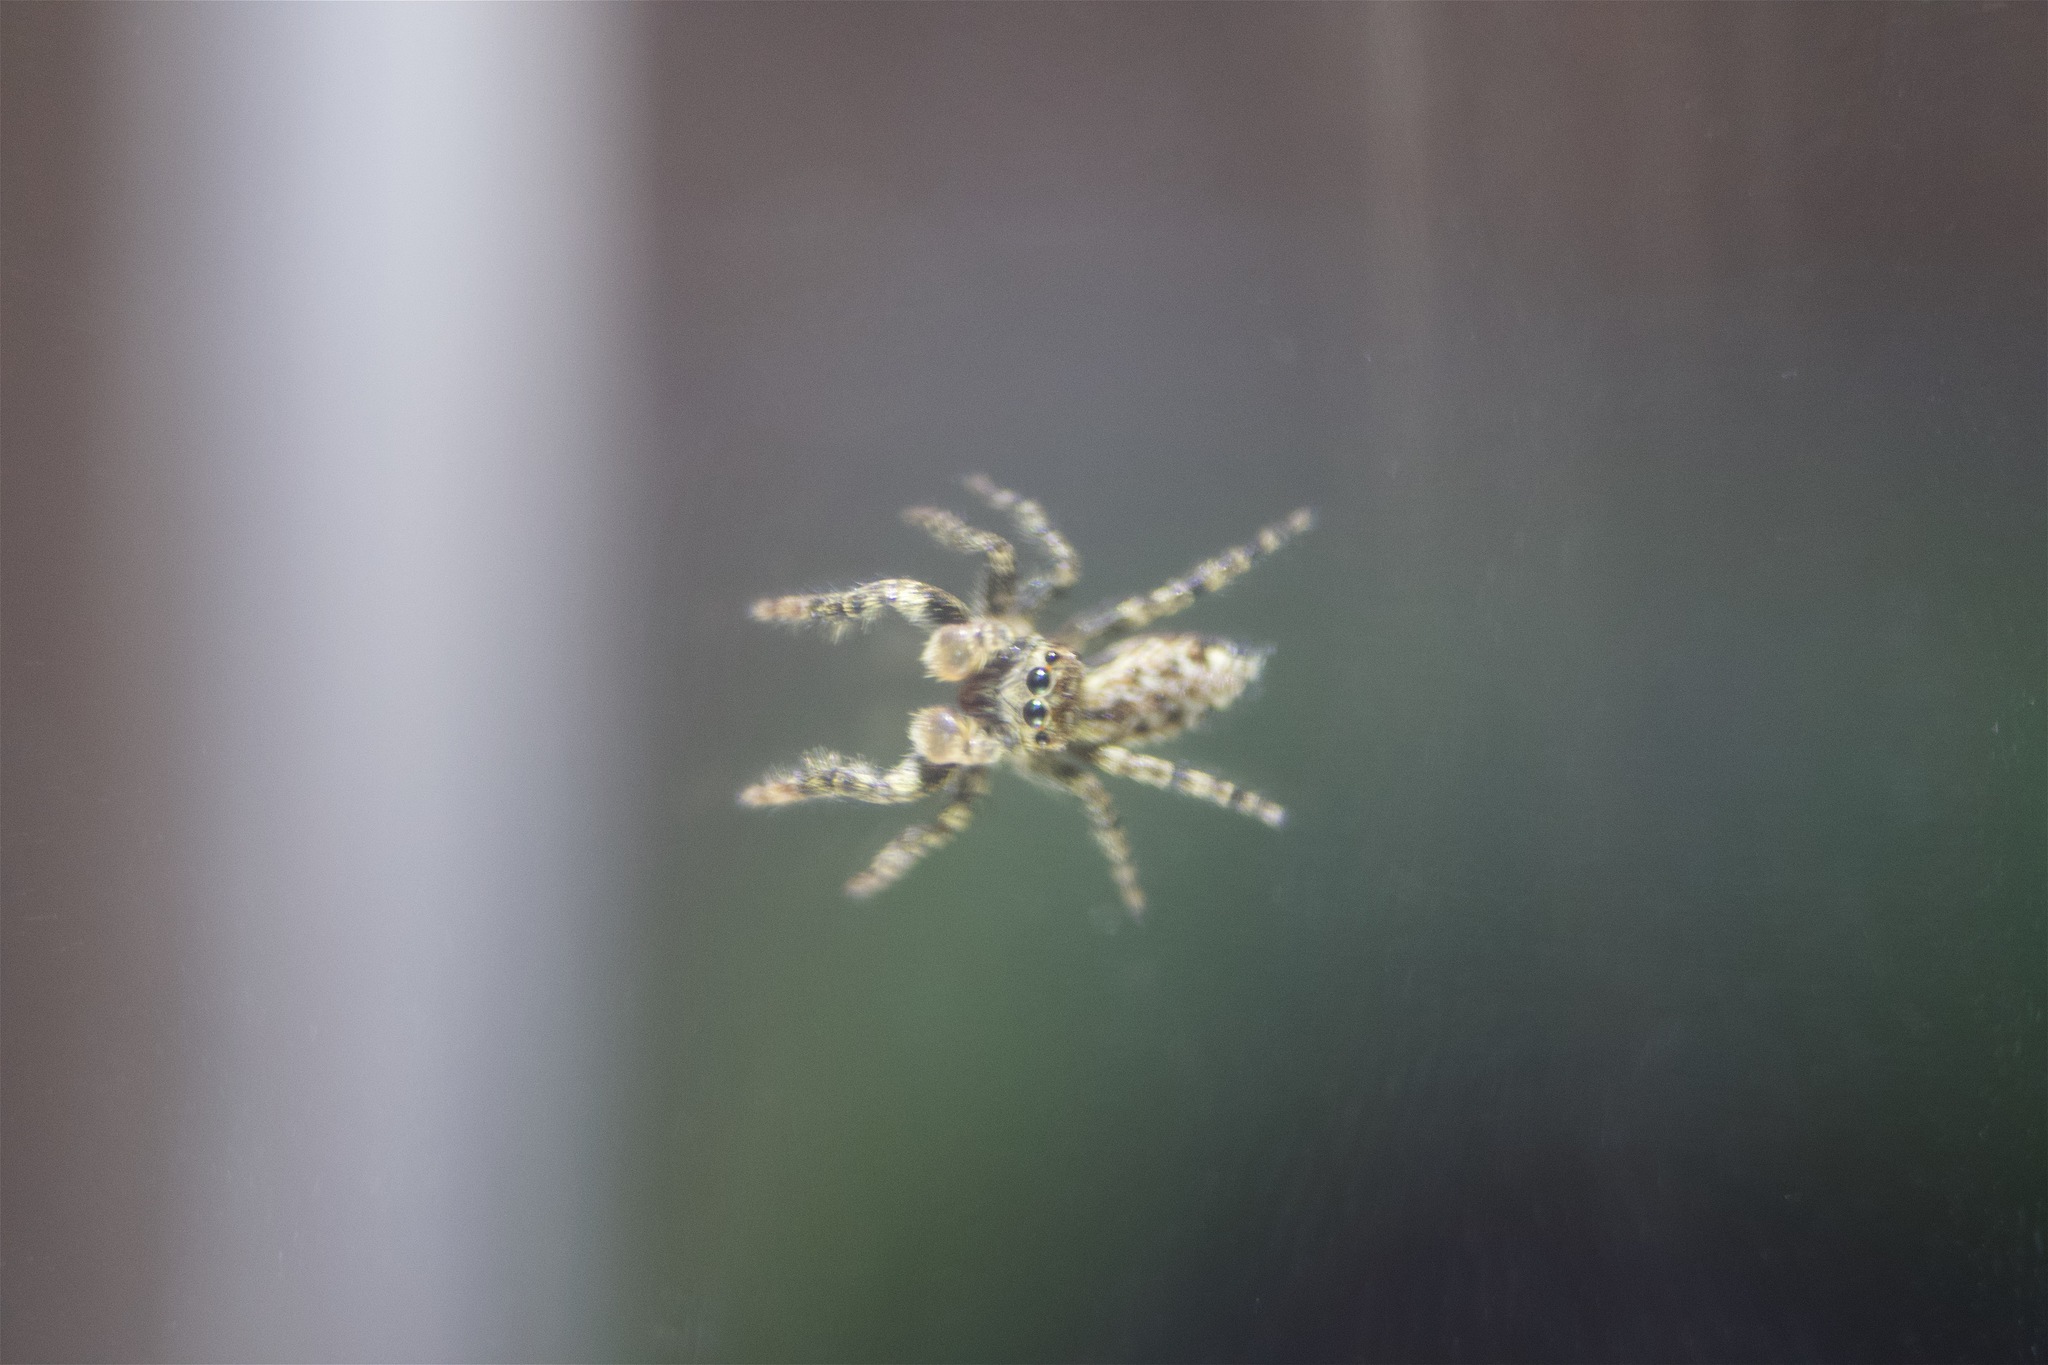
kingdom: Animalia
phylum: Arthropoda
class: Arachnida
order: Araneae
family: Salticidae
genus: Marpissa
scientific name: Marpissa muscosa
